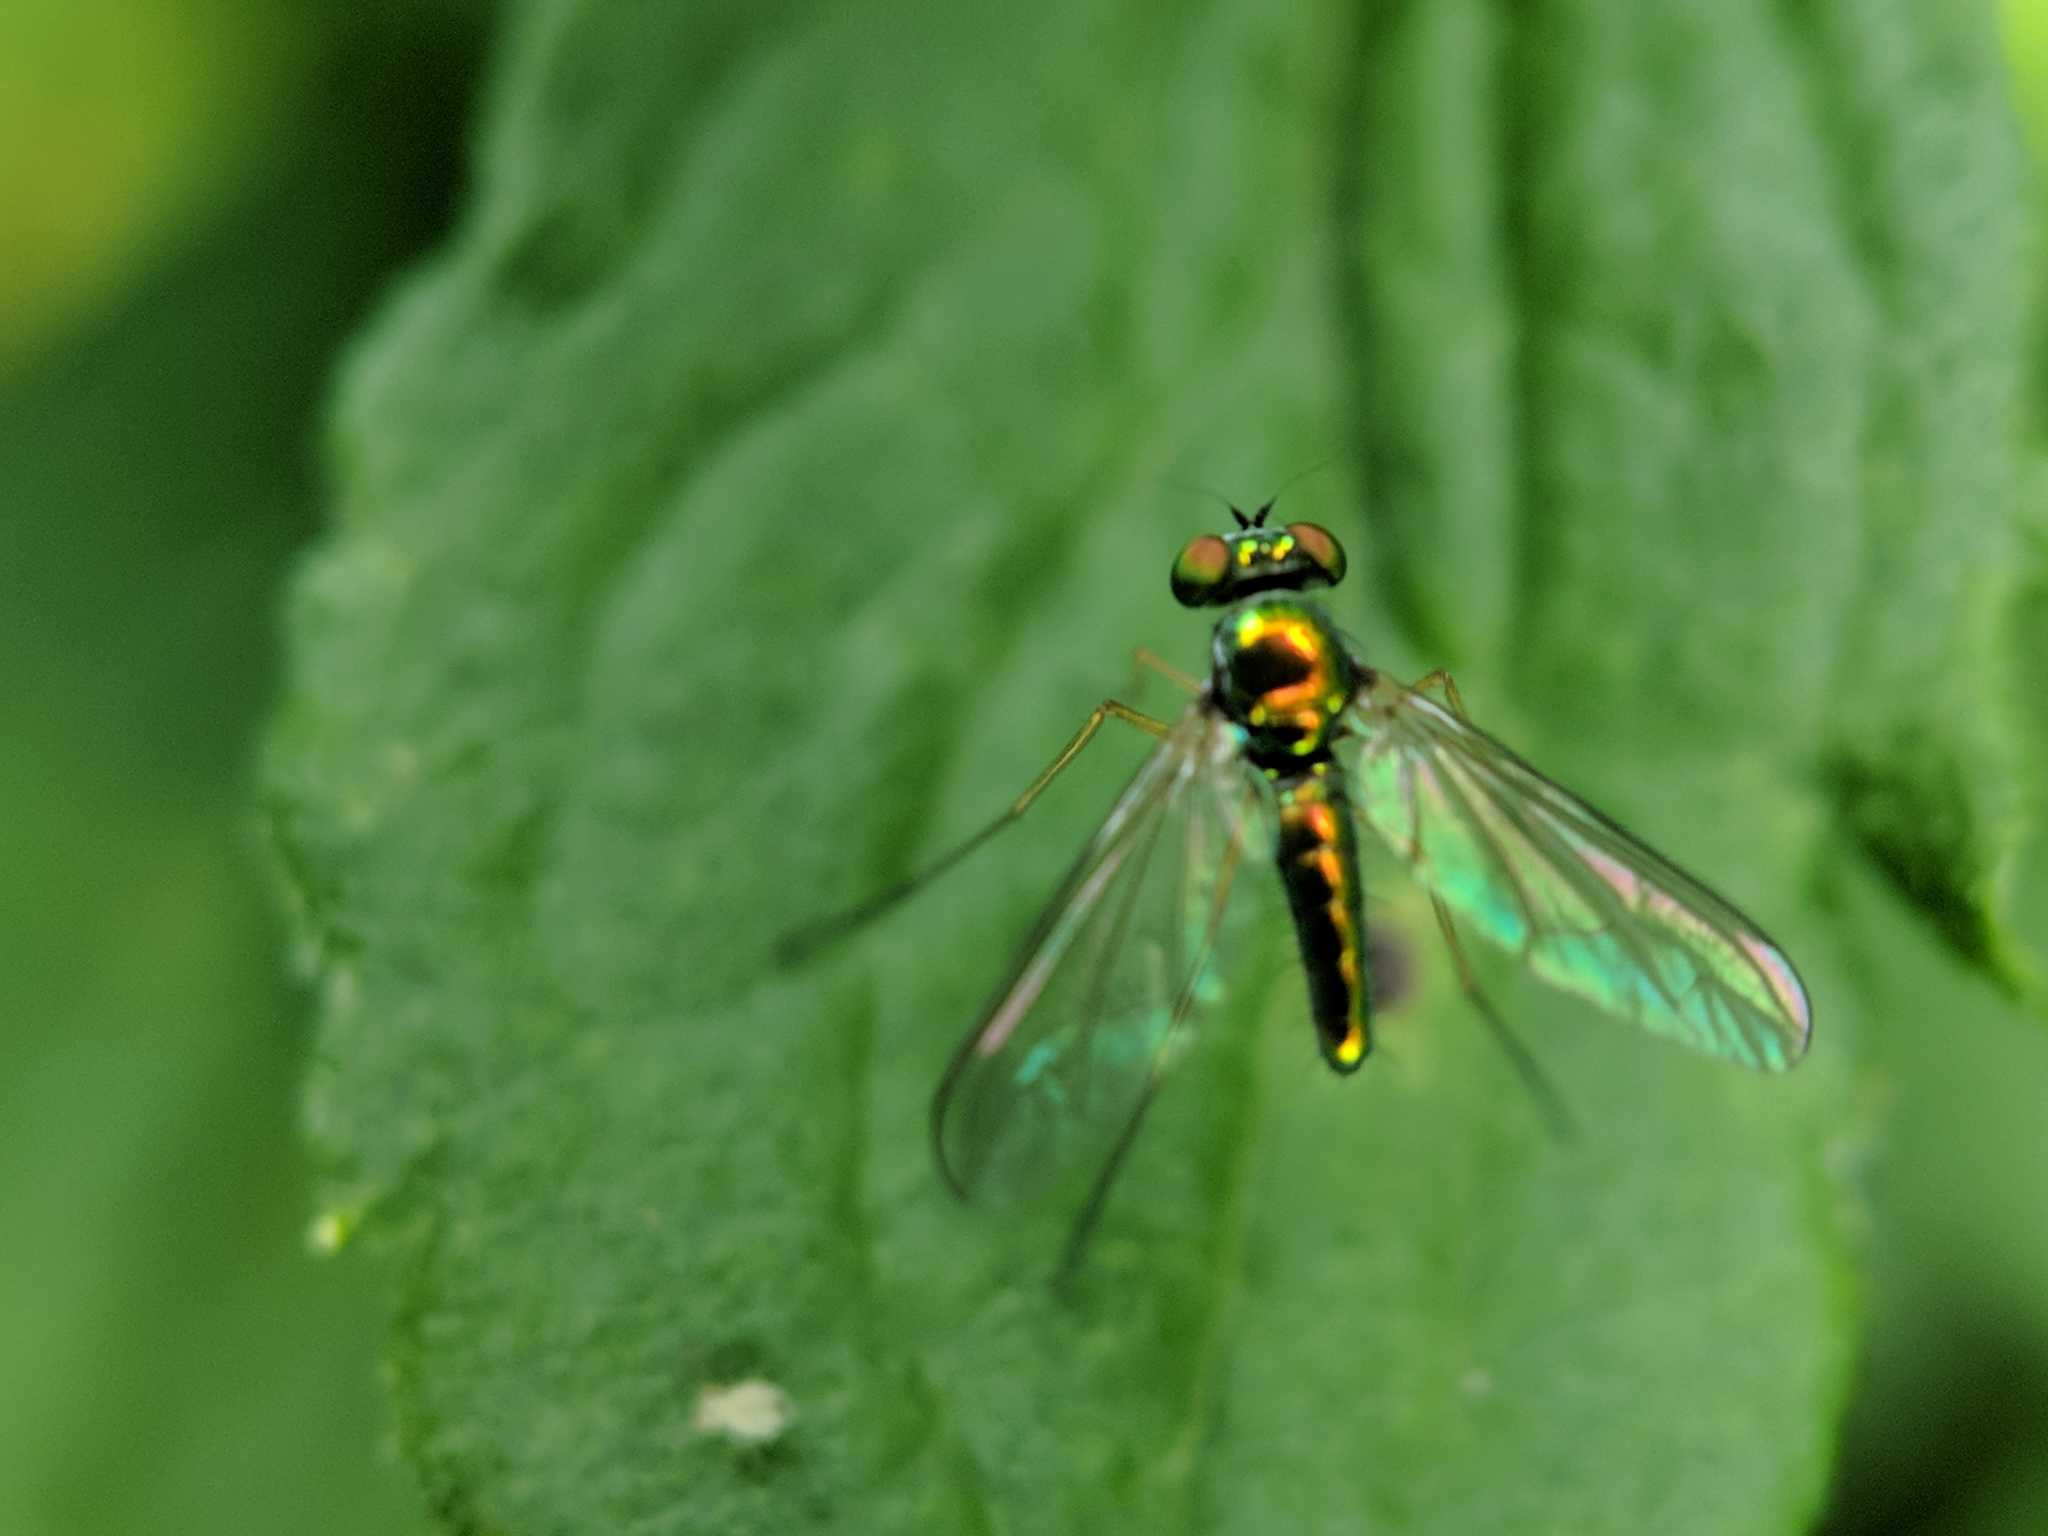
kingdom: Animalia
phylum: Arthropoda
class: Insecta
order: Diptera
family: Dolichopodidae
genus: Amblypsilopus
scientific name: Amblypsilopus scintillans
